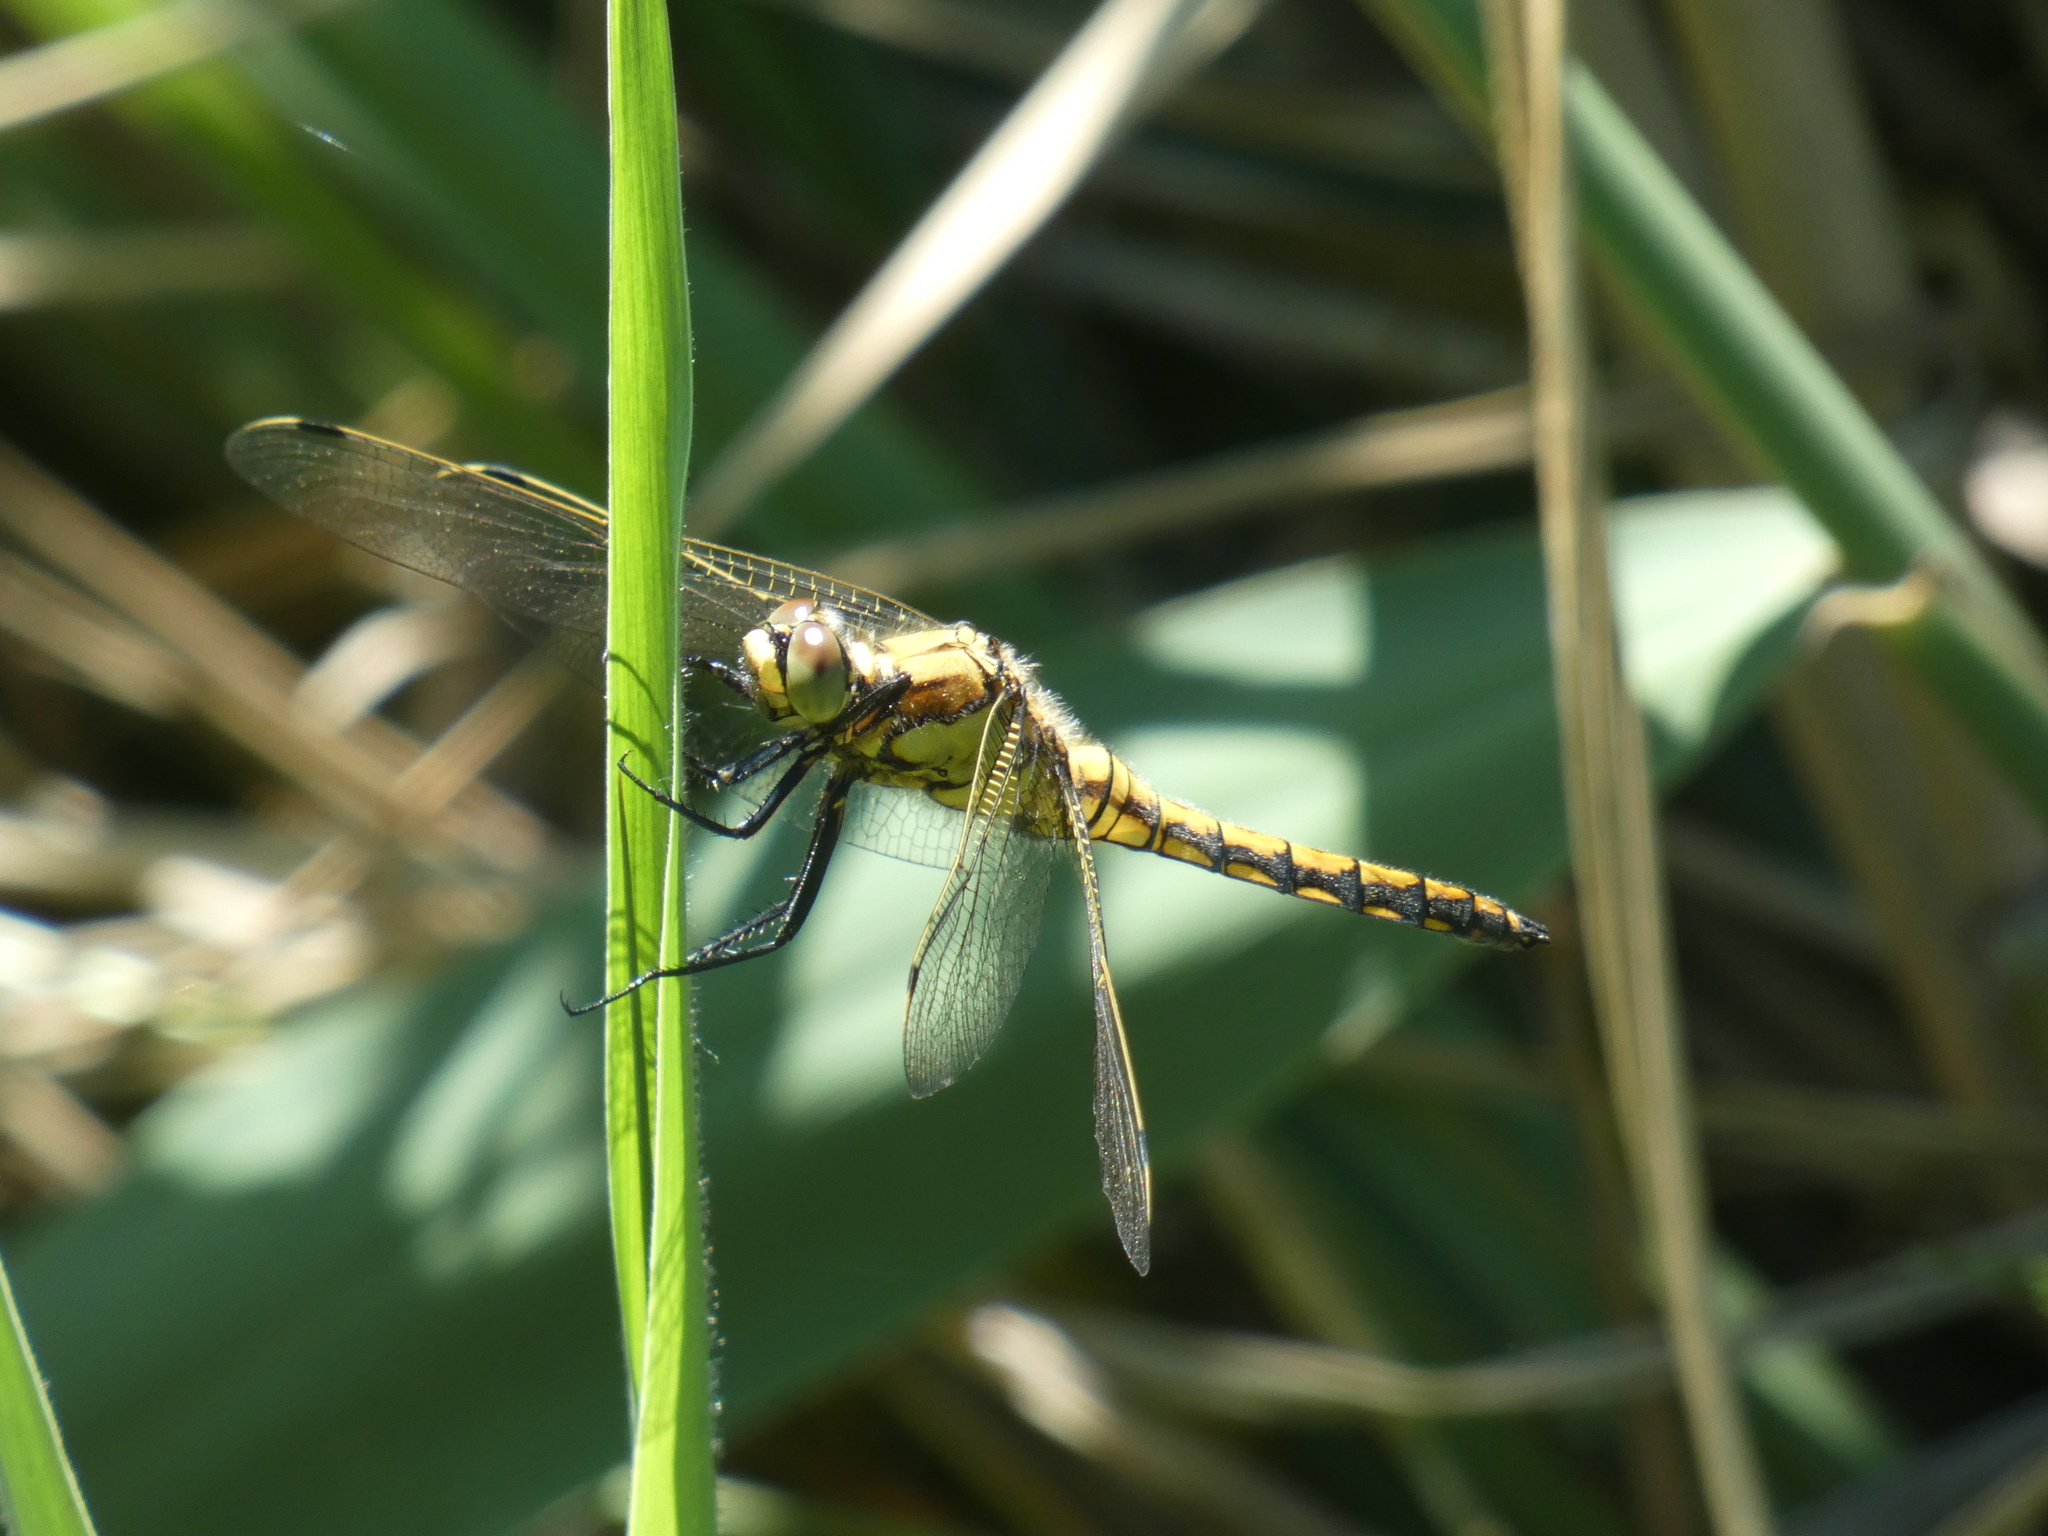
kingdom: Animalia
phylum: Arthropoda
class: Insecta
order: Odonata
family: Libellulidae
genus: Orthetrum
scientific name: Orthetrum cancellatum
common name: Black-tailed skimmer
